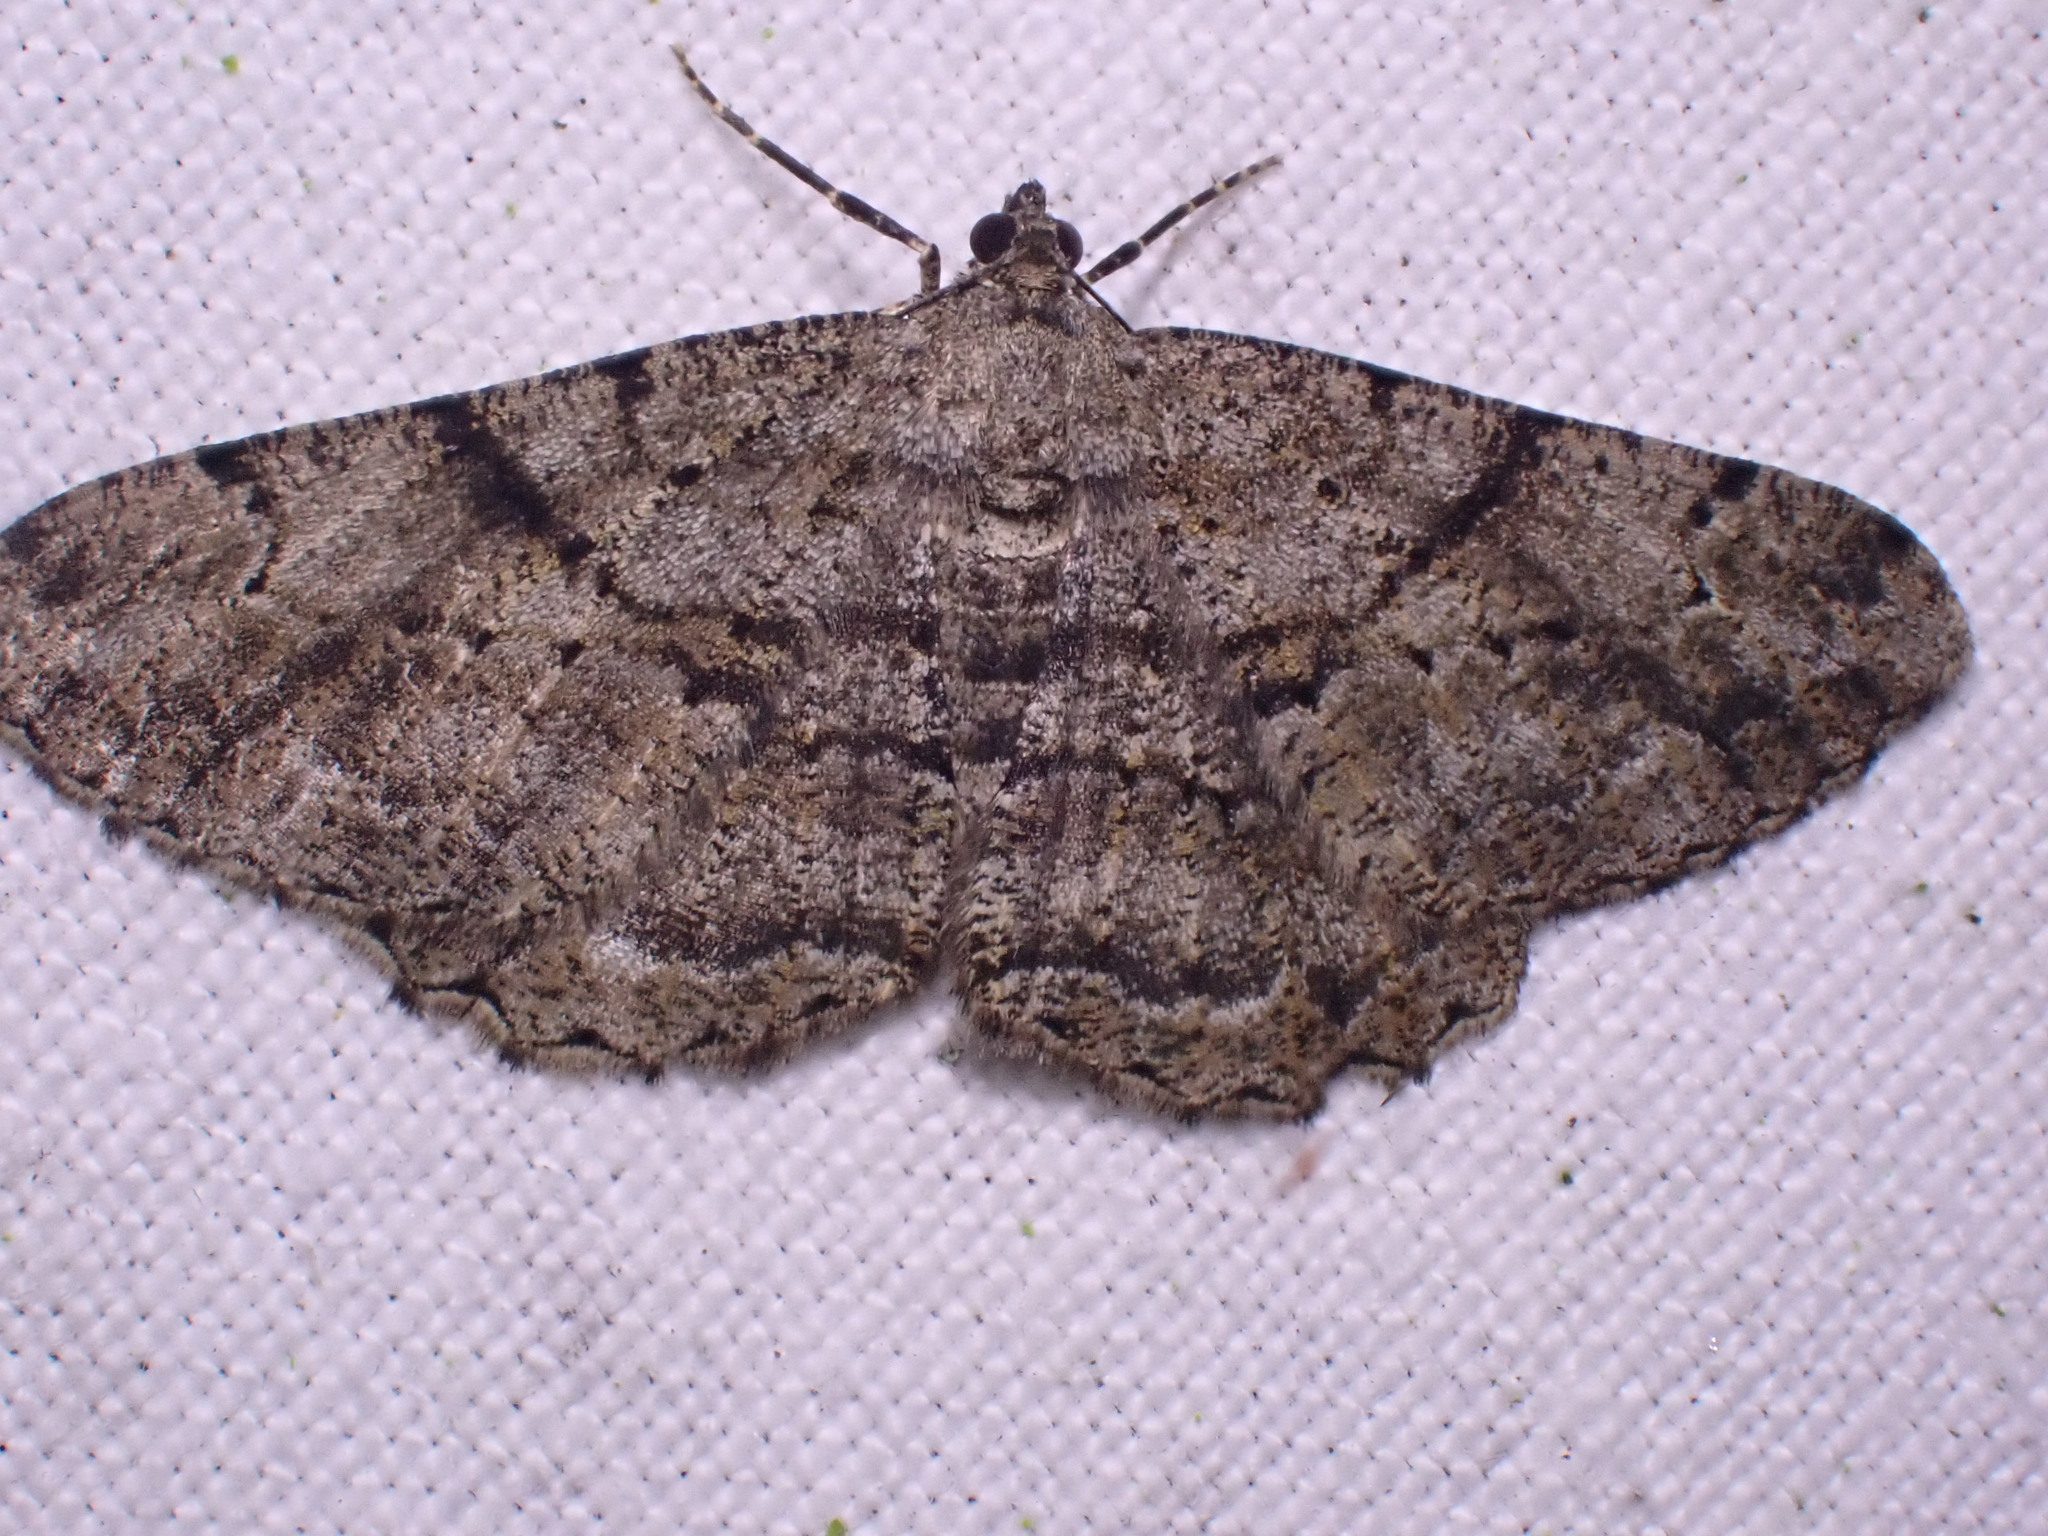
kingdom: Animalia
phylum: Arthropoda
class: Insecta
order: Lepidoptera
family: Geometridae
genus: Peribatodes
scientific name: Peribatodes rhomboidaria
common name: Willow beauty
